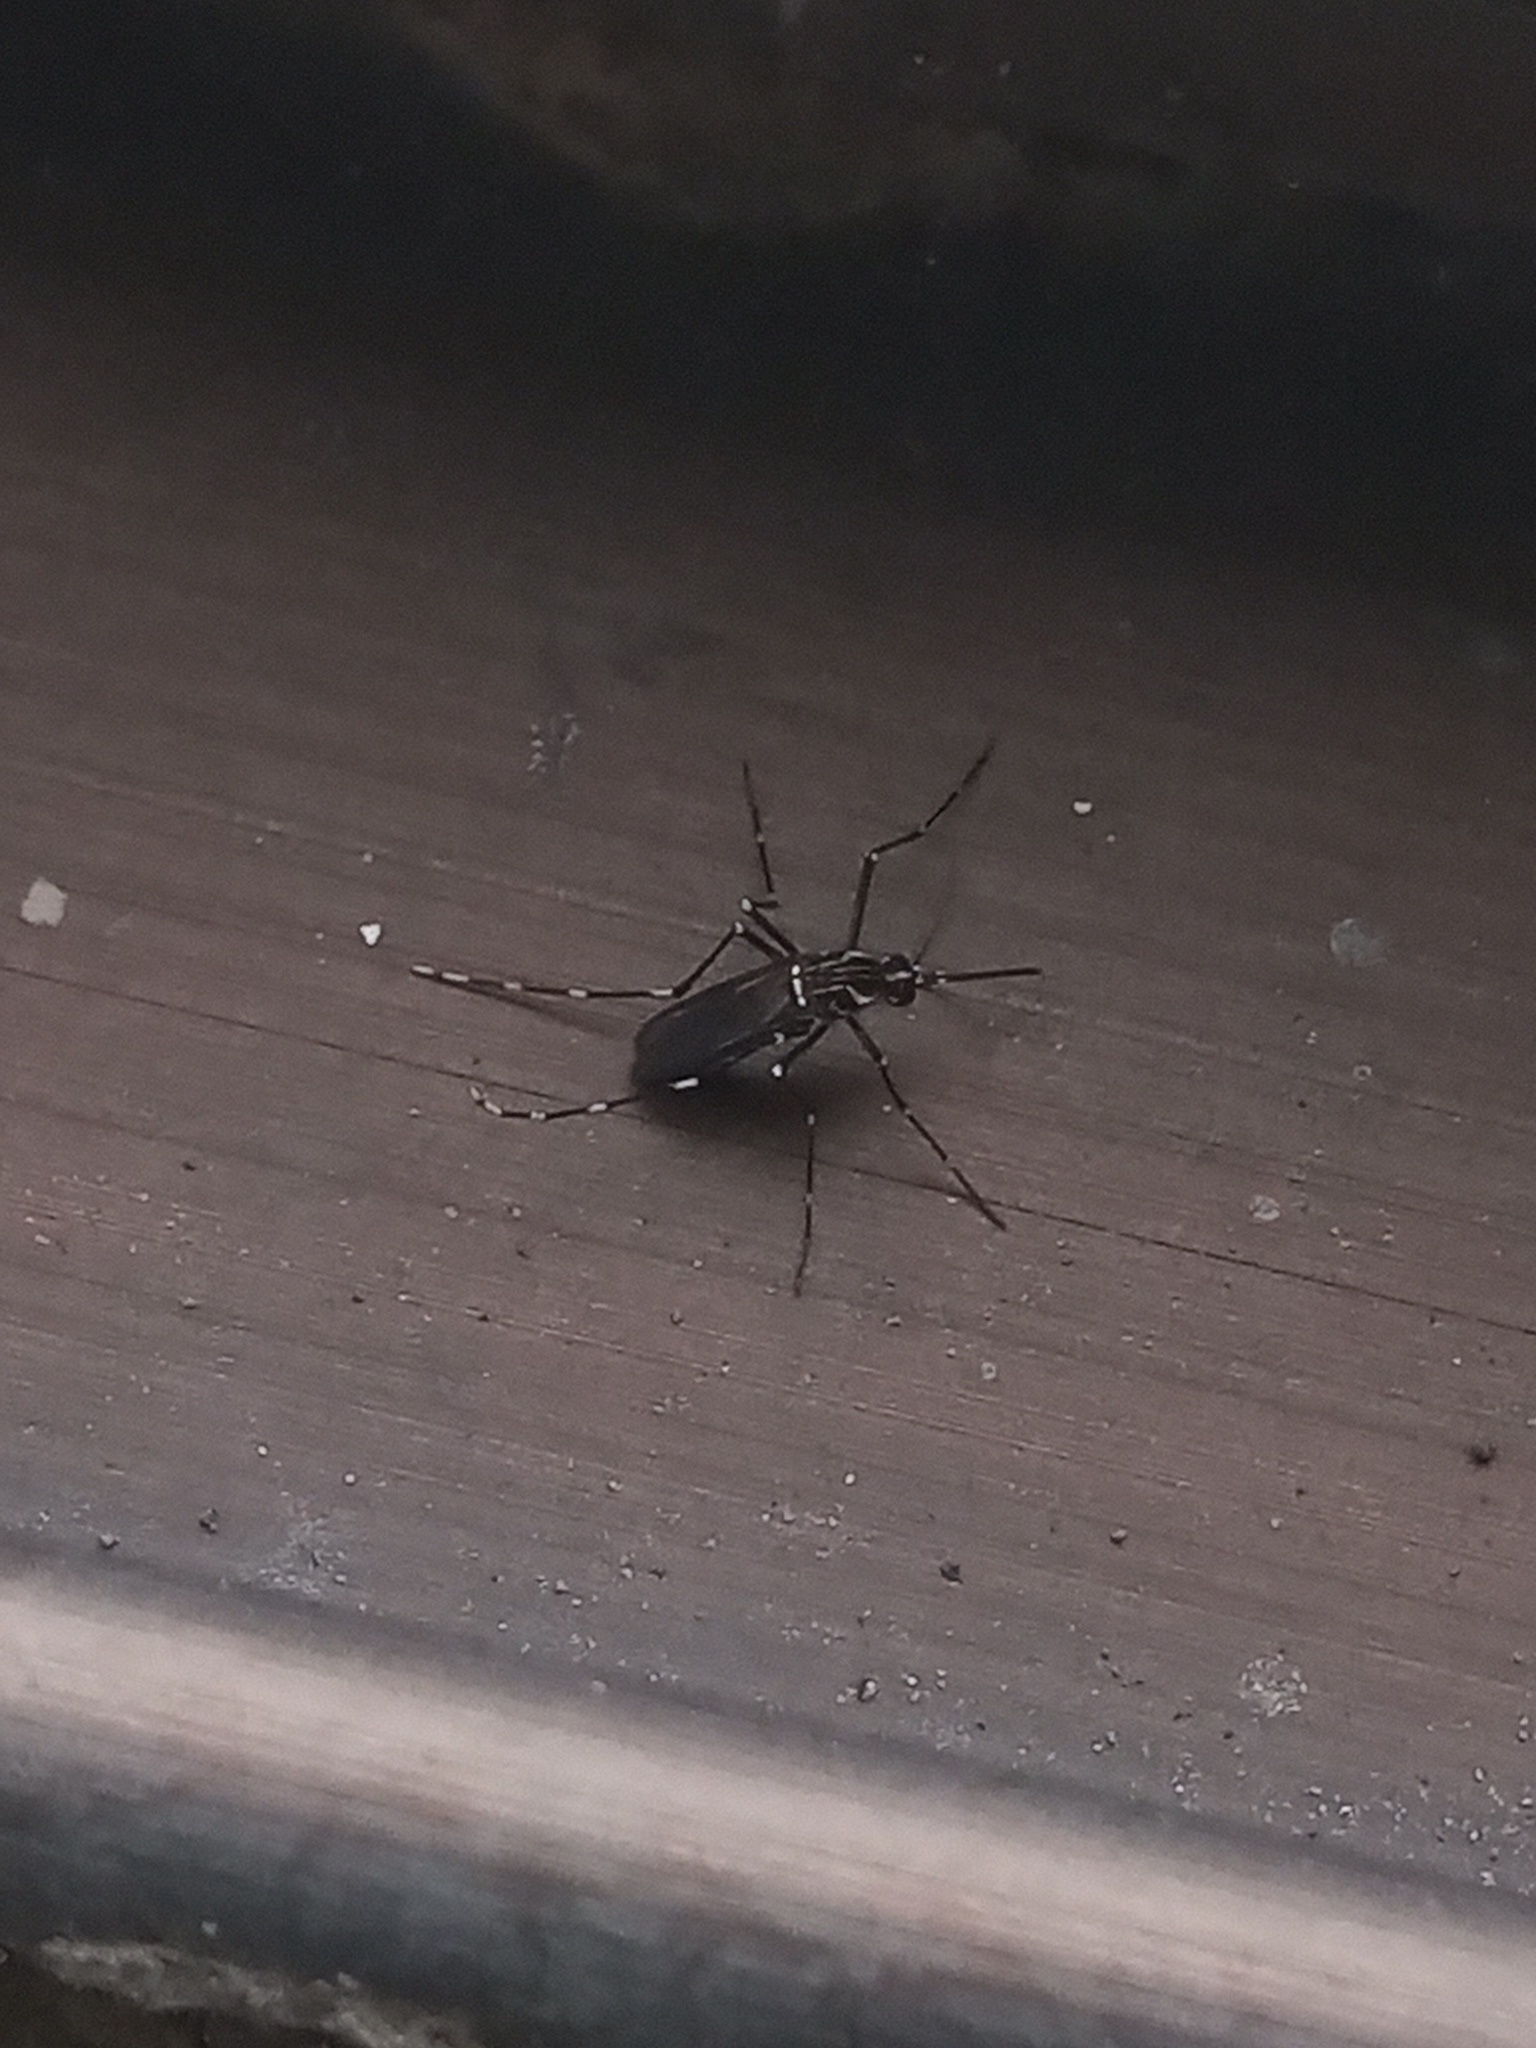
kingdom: Animalia
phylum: Arthropoda
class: Insecta
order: Diptera
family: Culicidae
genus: Aedes
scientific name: Aedes aegypti
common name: Yellow fever mosquito
